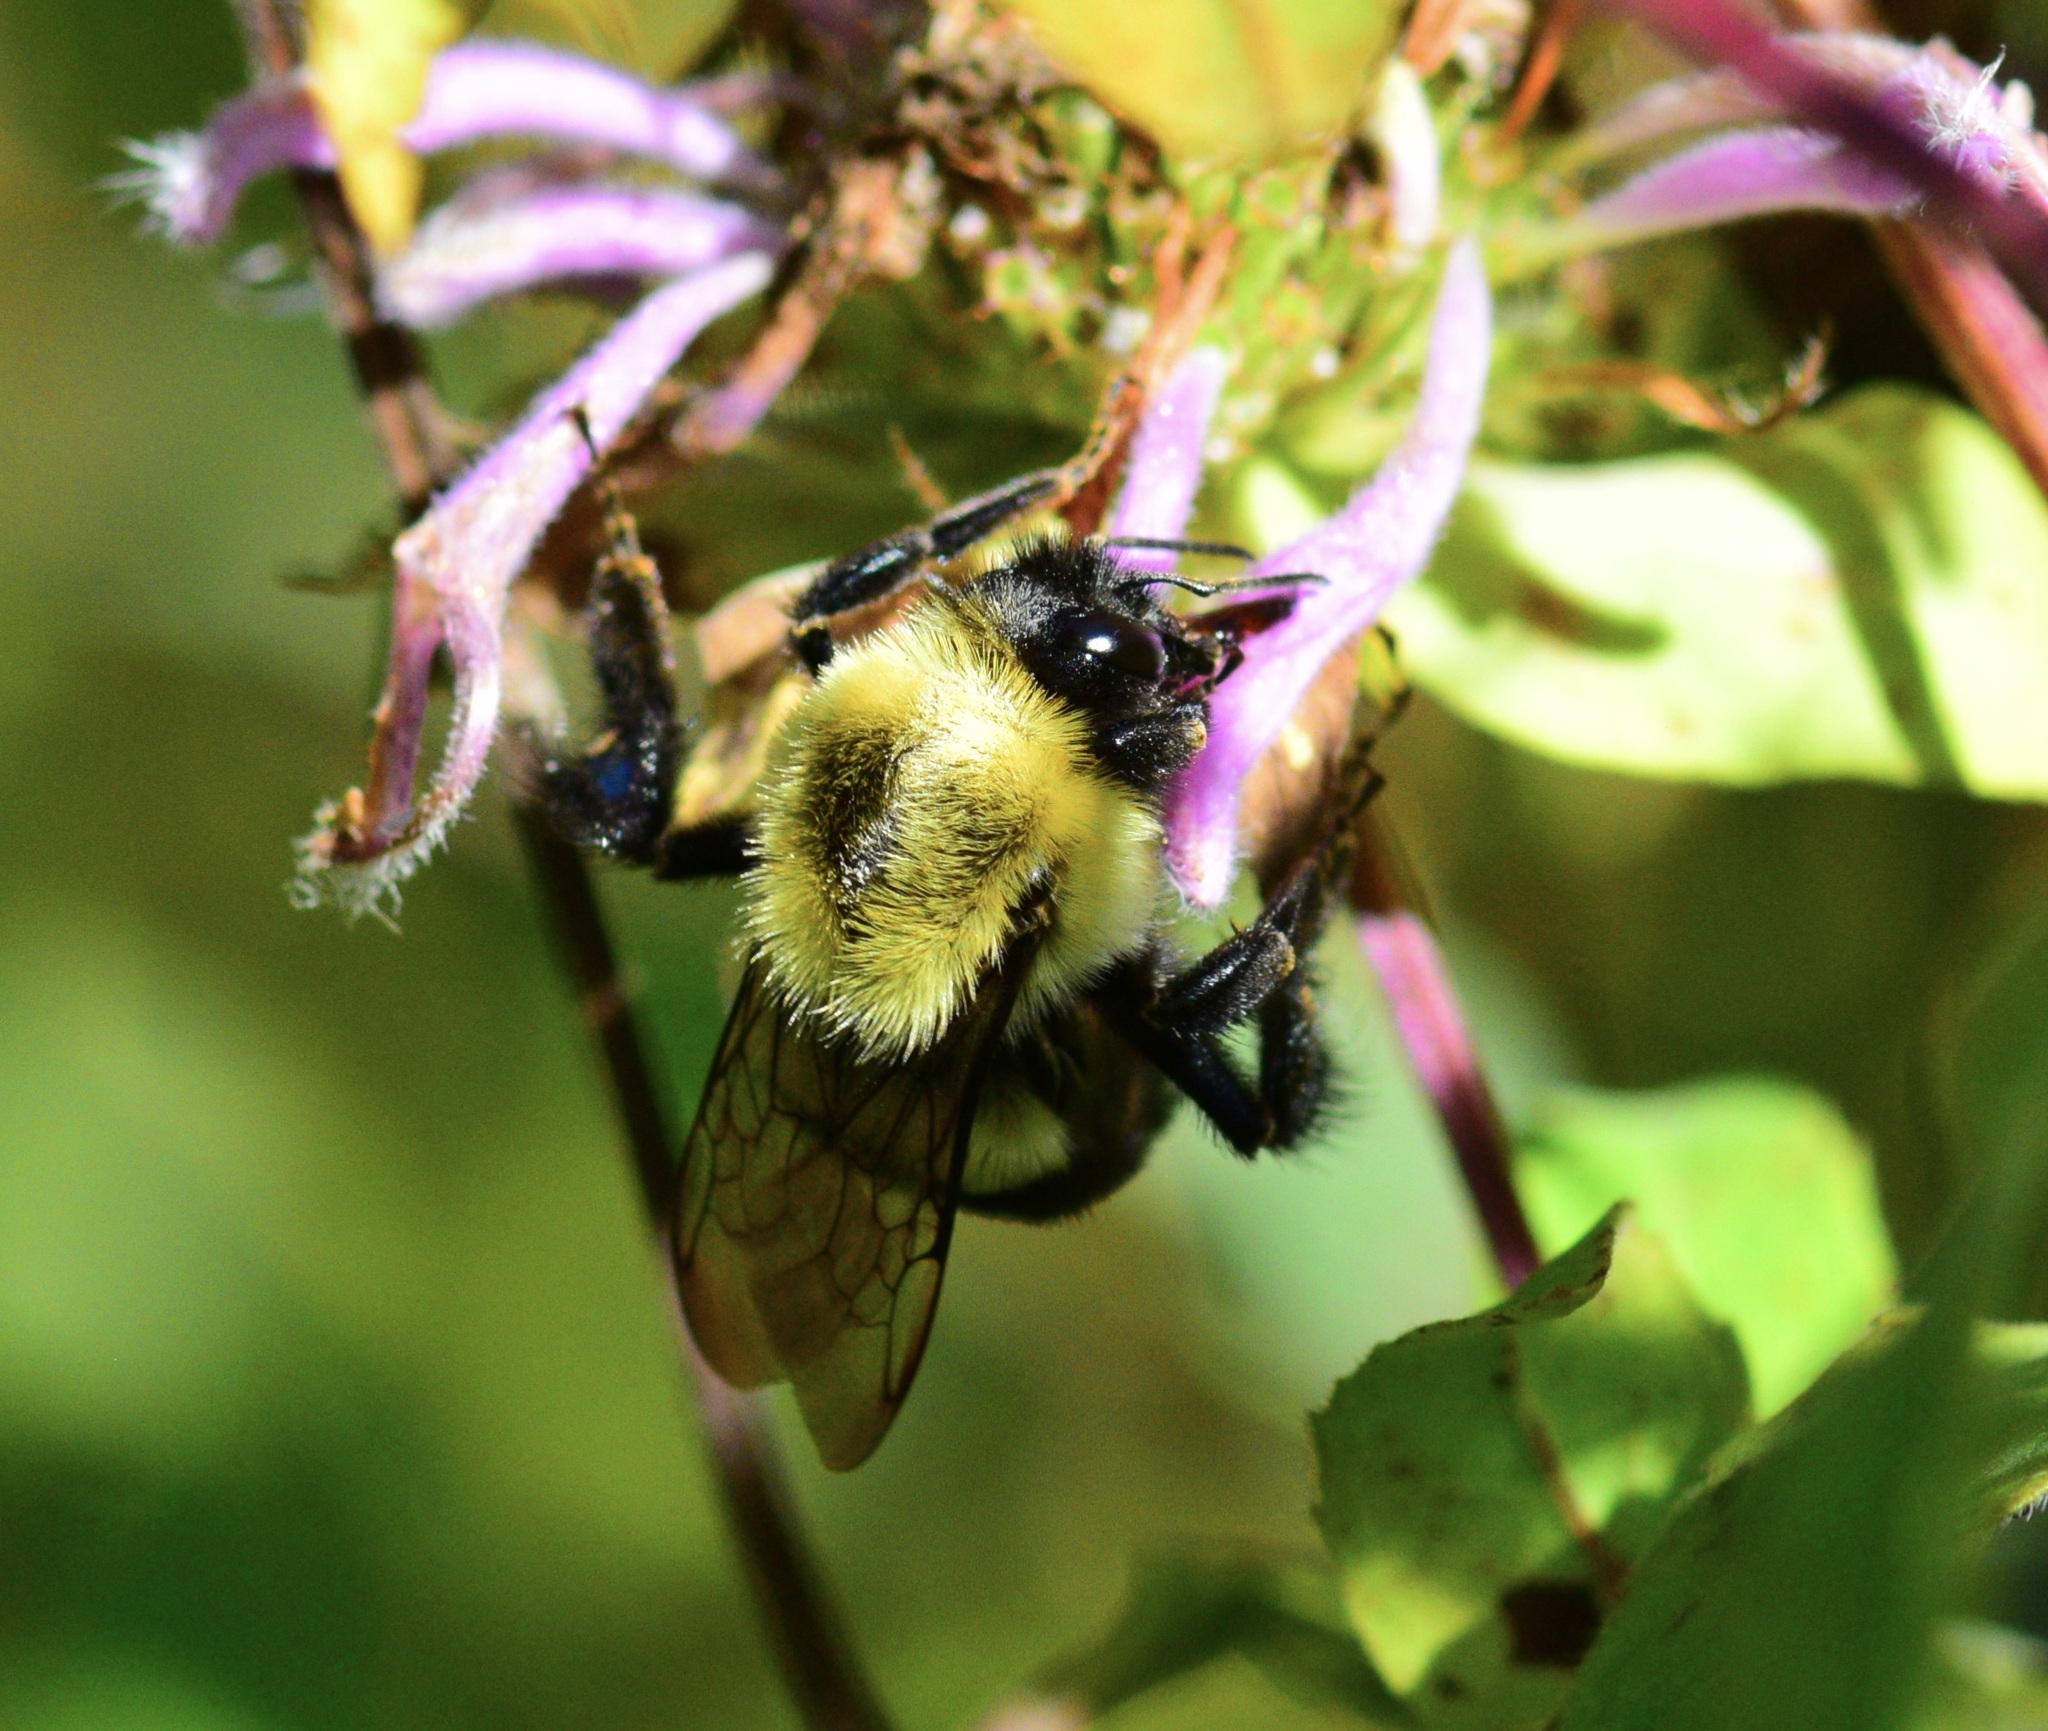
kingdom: Animalia
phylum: Arthropoda
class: Insecta
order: Hymenoptera
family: Apidae
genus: Bombus
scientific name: Bombus impatiens
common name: Common eastern bumble bee
